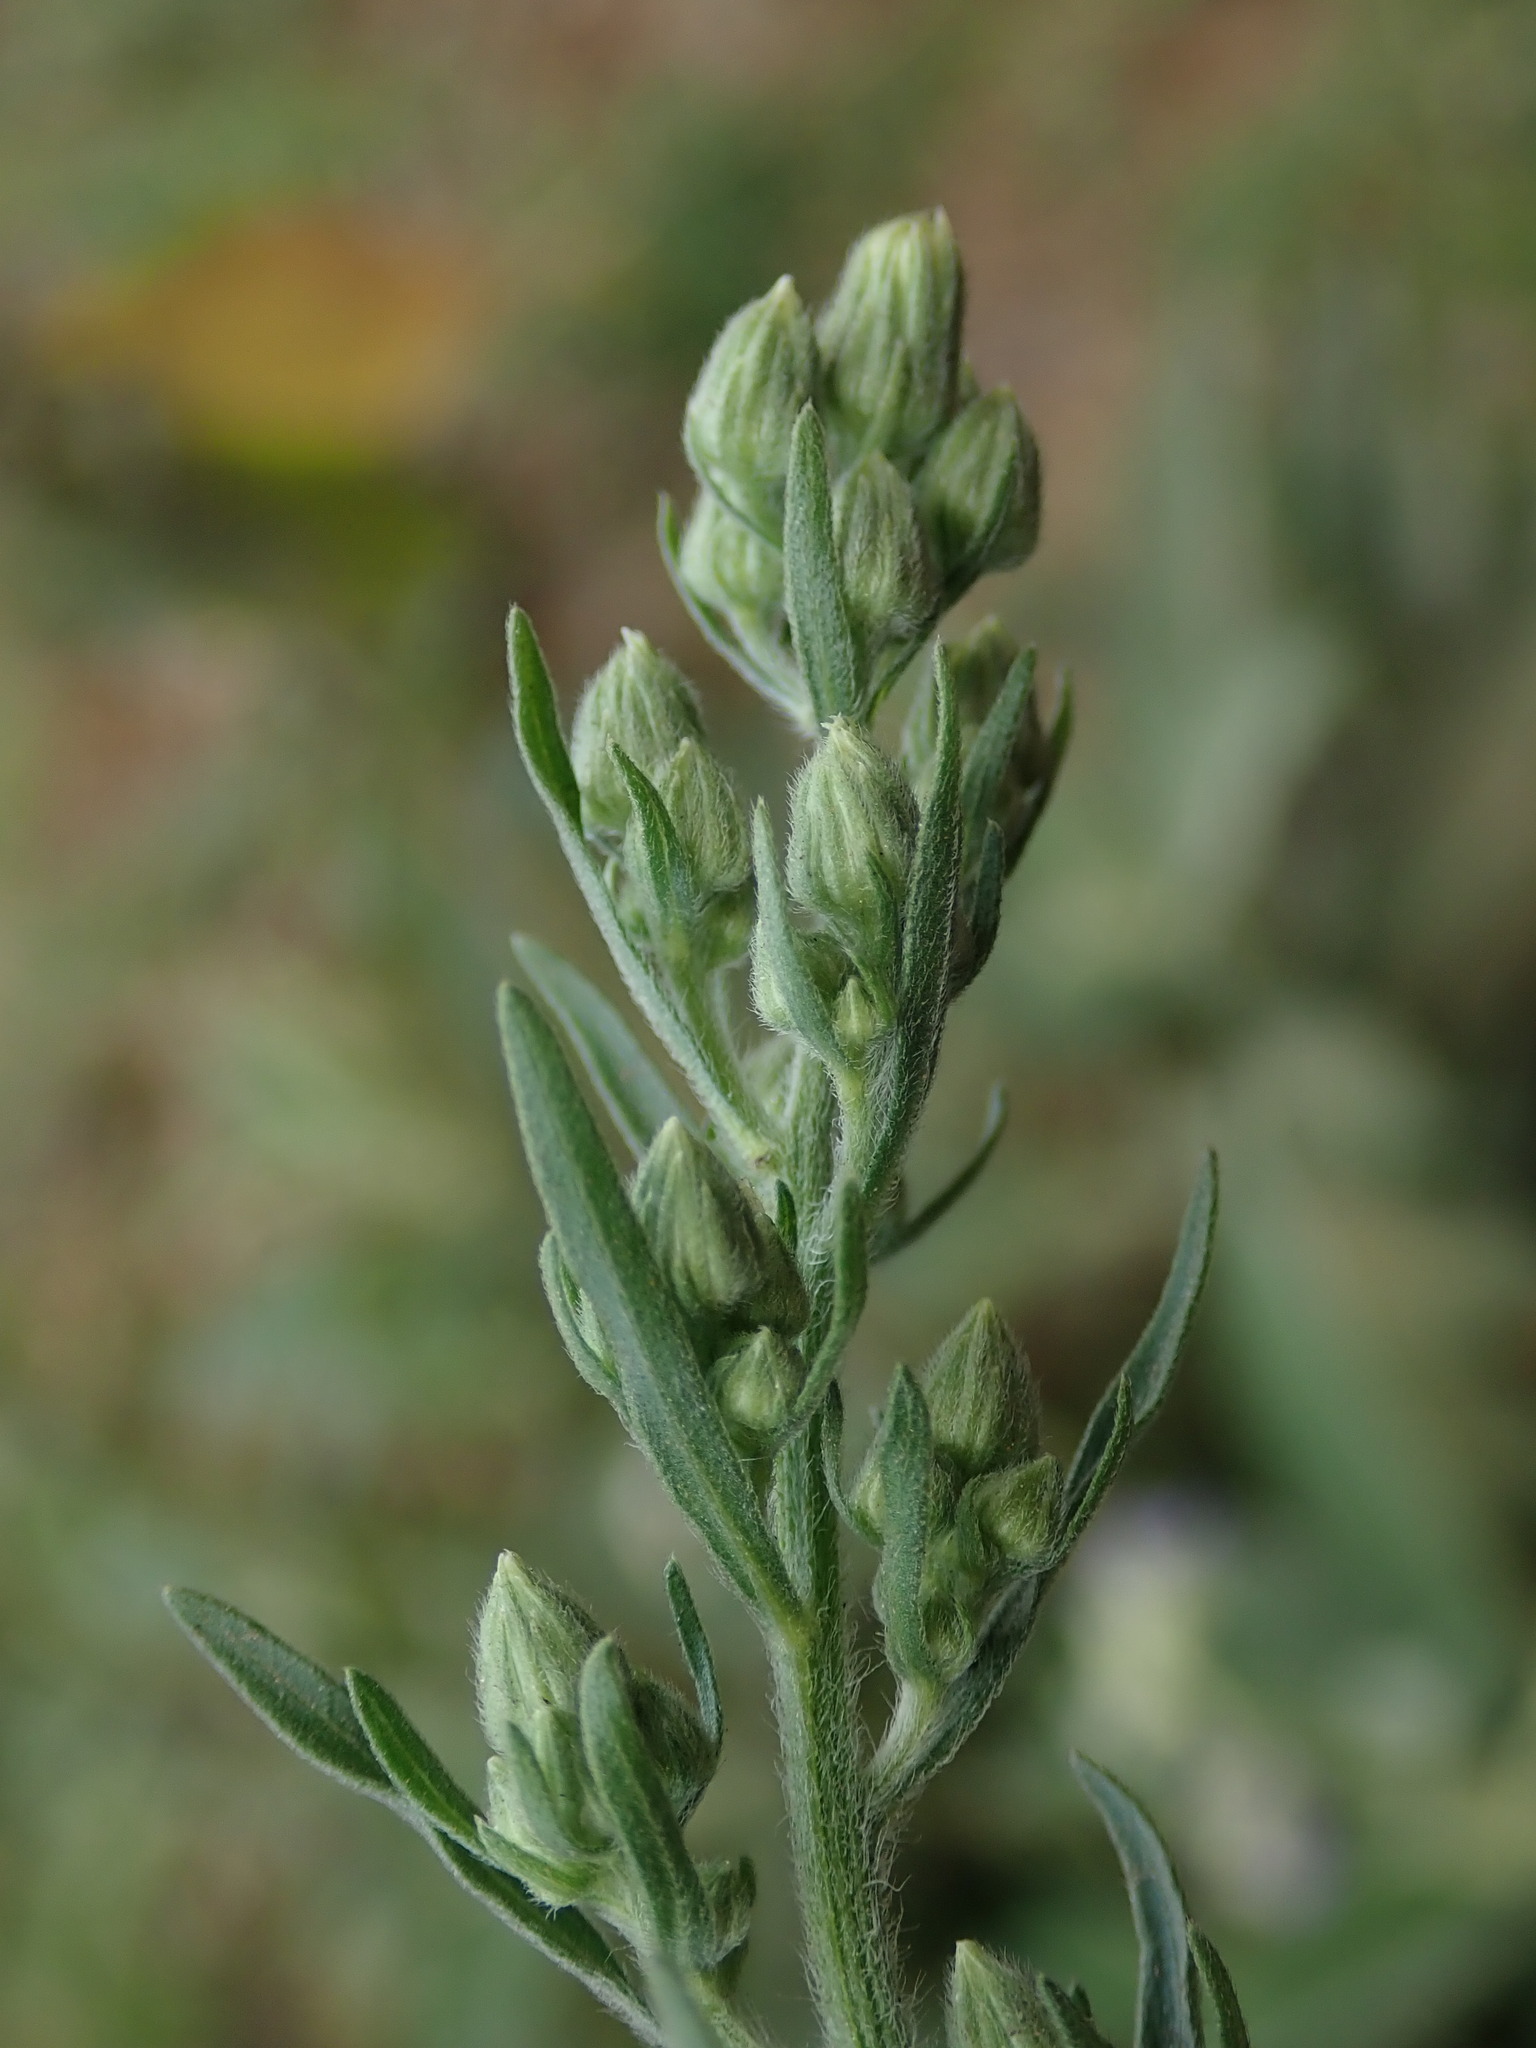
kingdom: Plantae
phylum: Tracheophyta
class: Magnoliopsida
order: Asterales
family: Asteraceae
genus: Erigeron
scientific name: Erigeron sumatrensis
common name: Daisy
